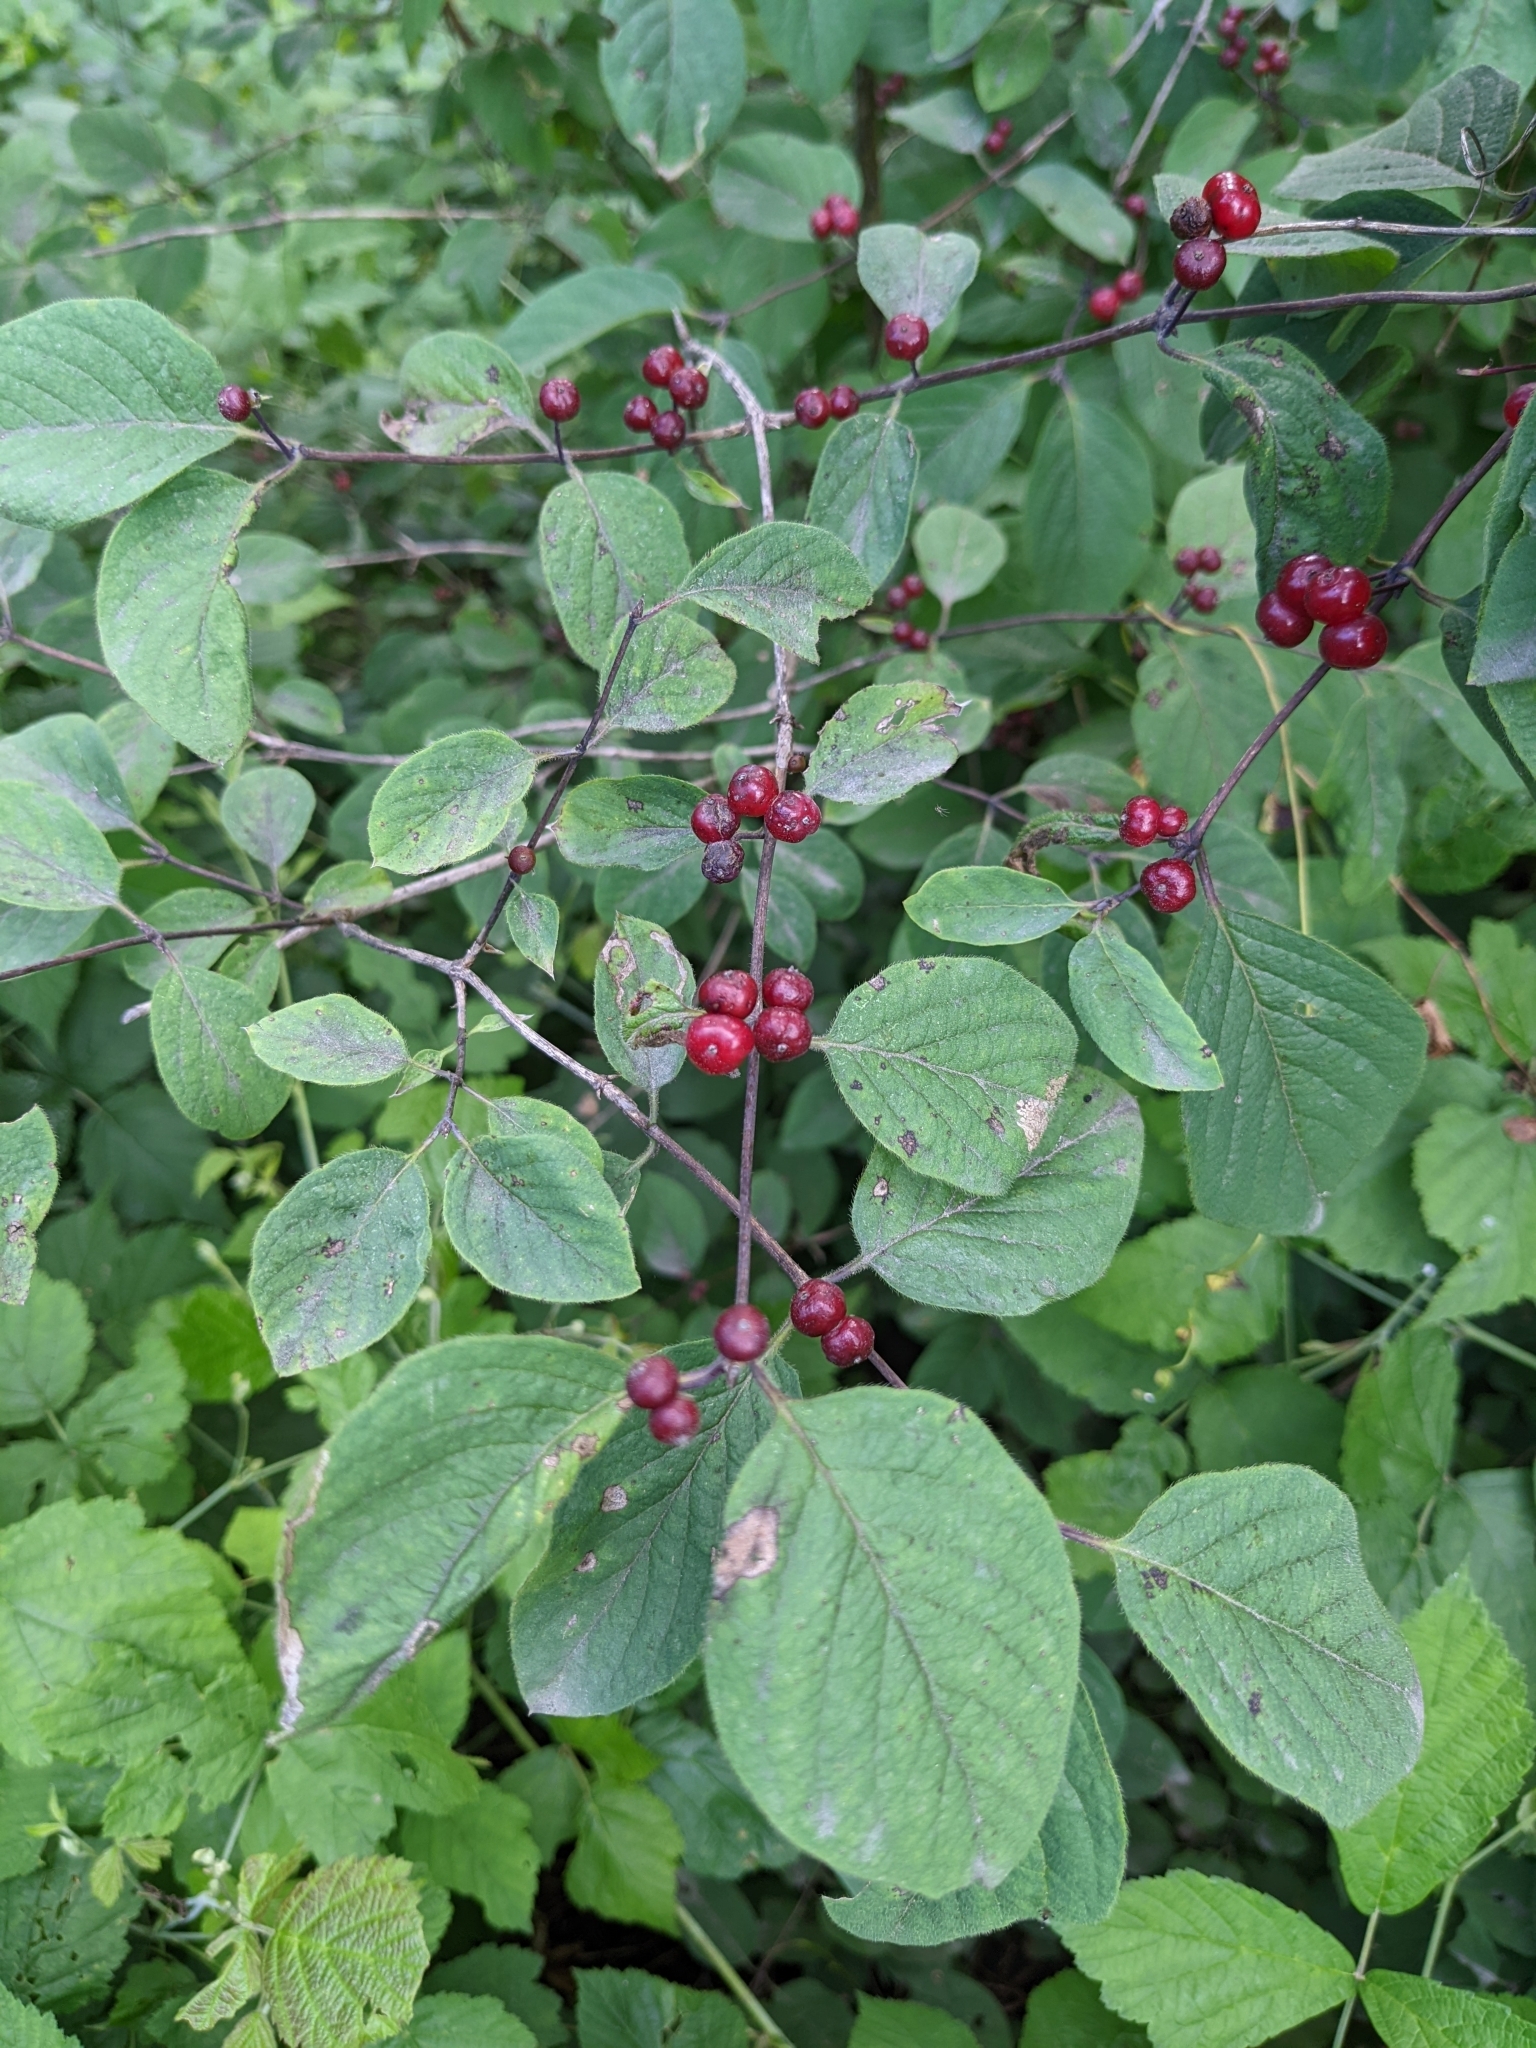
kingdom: Plantae
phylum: Tracheophyta
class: Magnoliopsida
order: Dipsacales
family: Caprifoliaceae
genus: Lonicera
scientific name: Lonicera xylosteum
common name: Fly honeysuckle
